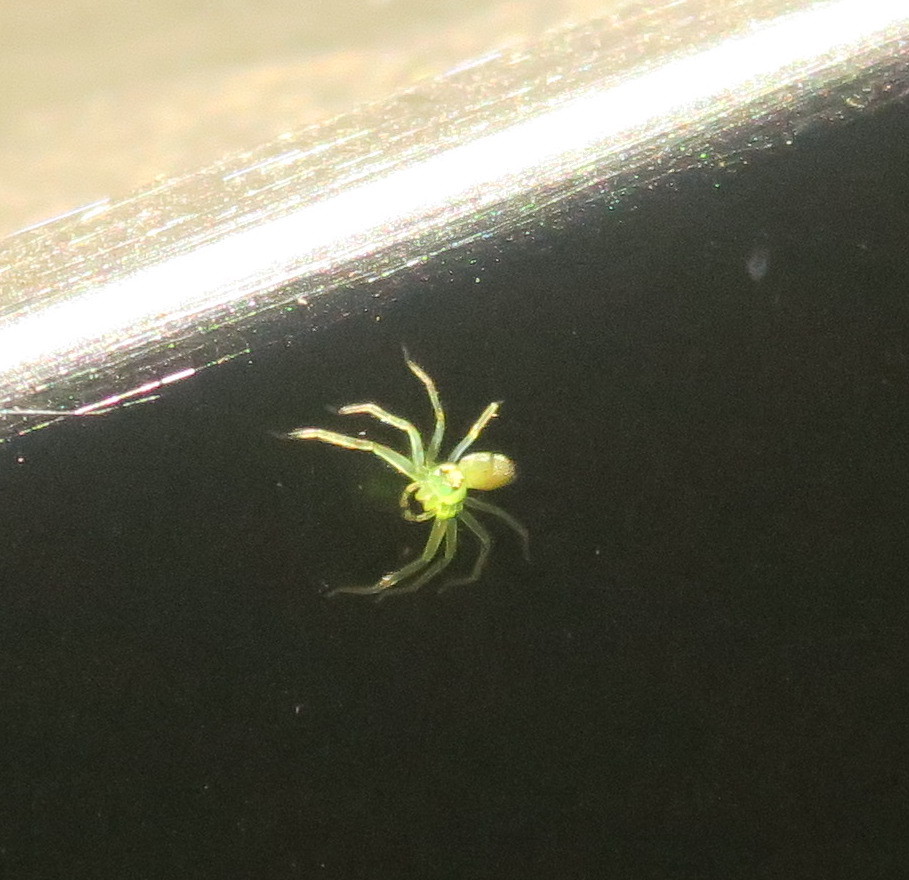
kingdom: Animalia
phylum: Arthropoda
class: Arachnida
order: Araneae
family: Salticidae
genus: Lyssomanes
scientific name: Lyssomanes viridis
